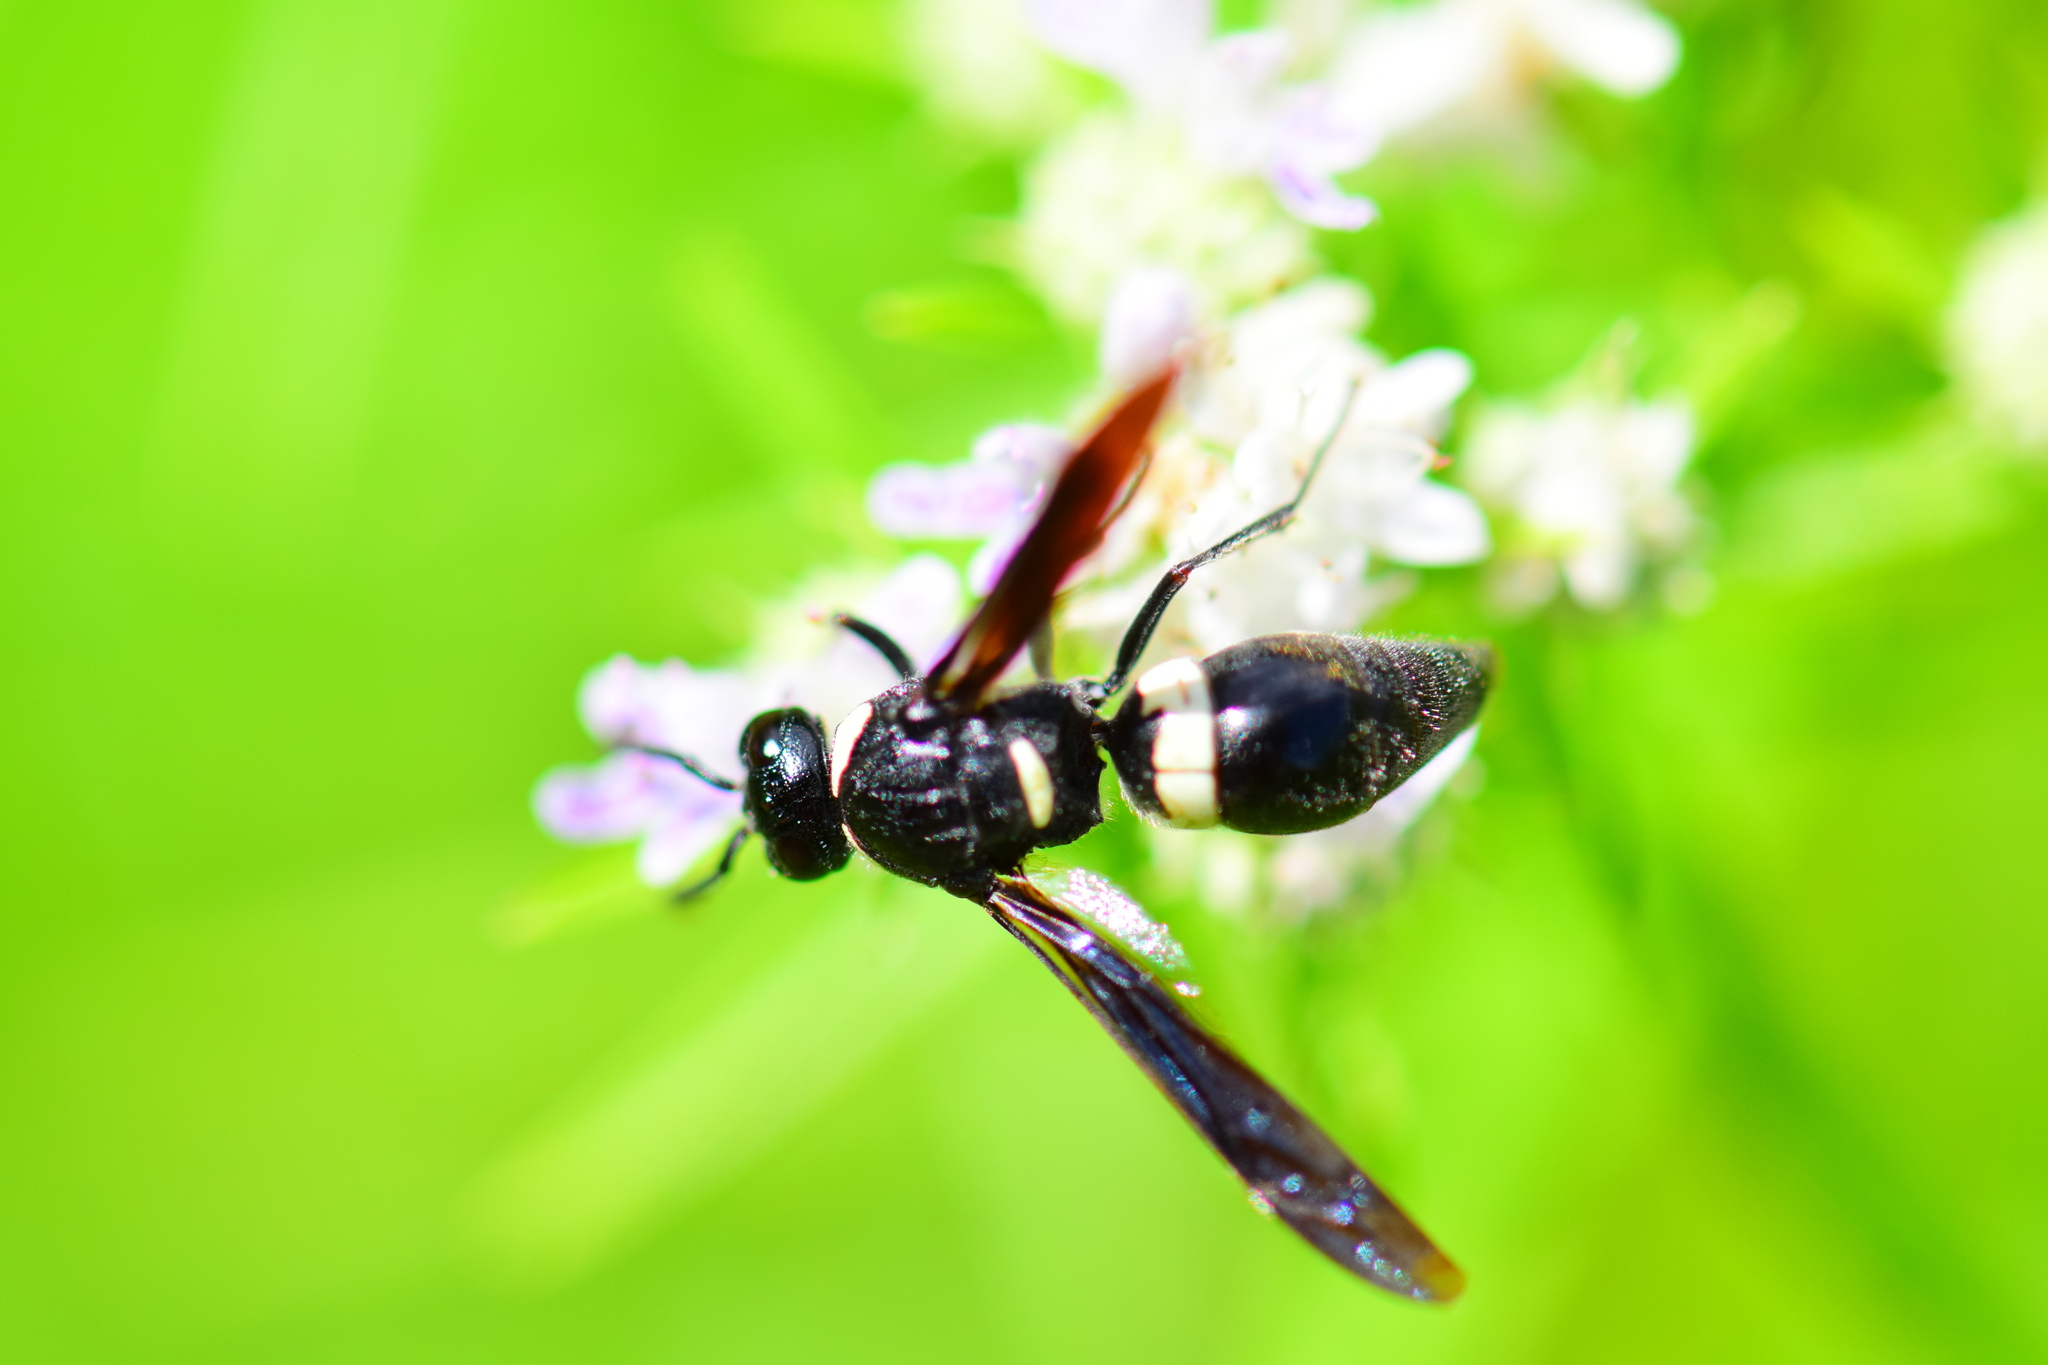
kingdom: Animalia
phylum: Arthropoda
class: Insecta
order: Hymenoptera
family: Eumenidae
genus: Monobia
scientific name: Monobia quadridens
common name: Four-toothed mason wasp
